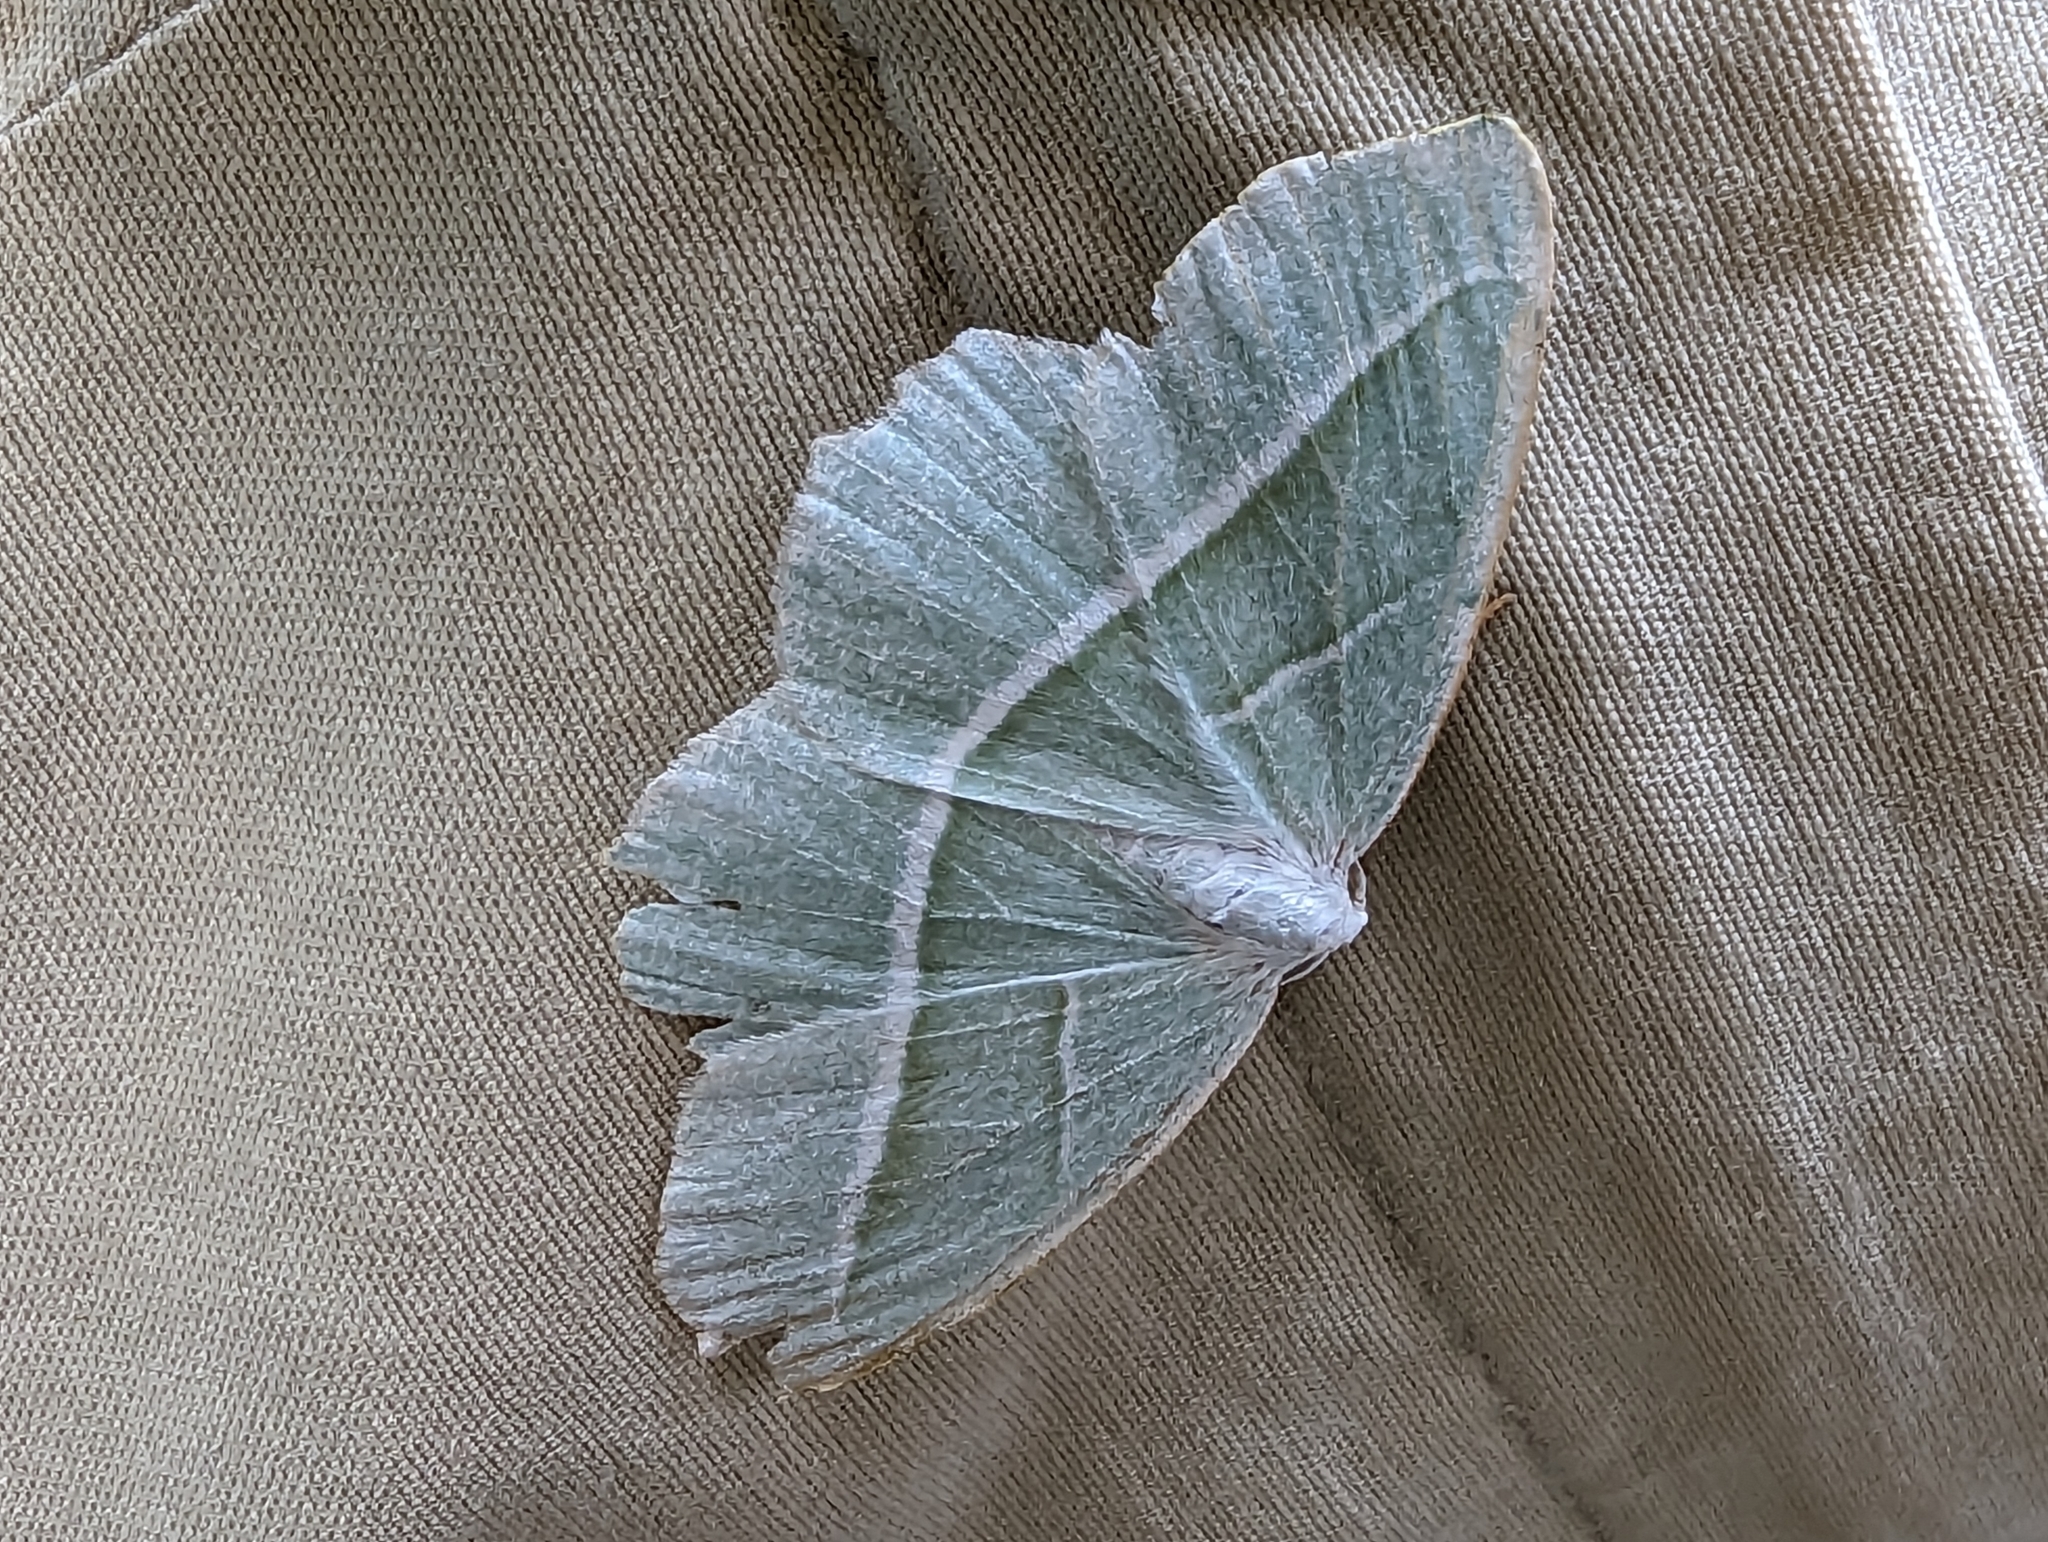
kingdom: Animalia
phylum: Arthropoda
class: Insecta
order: Lepidoptera
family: Geometridae
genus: Campaea
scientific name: Campaea margaritaria
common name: Light emerald
